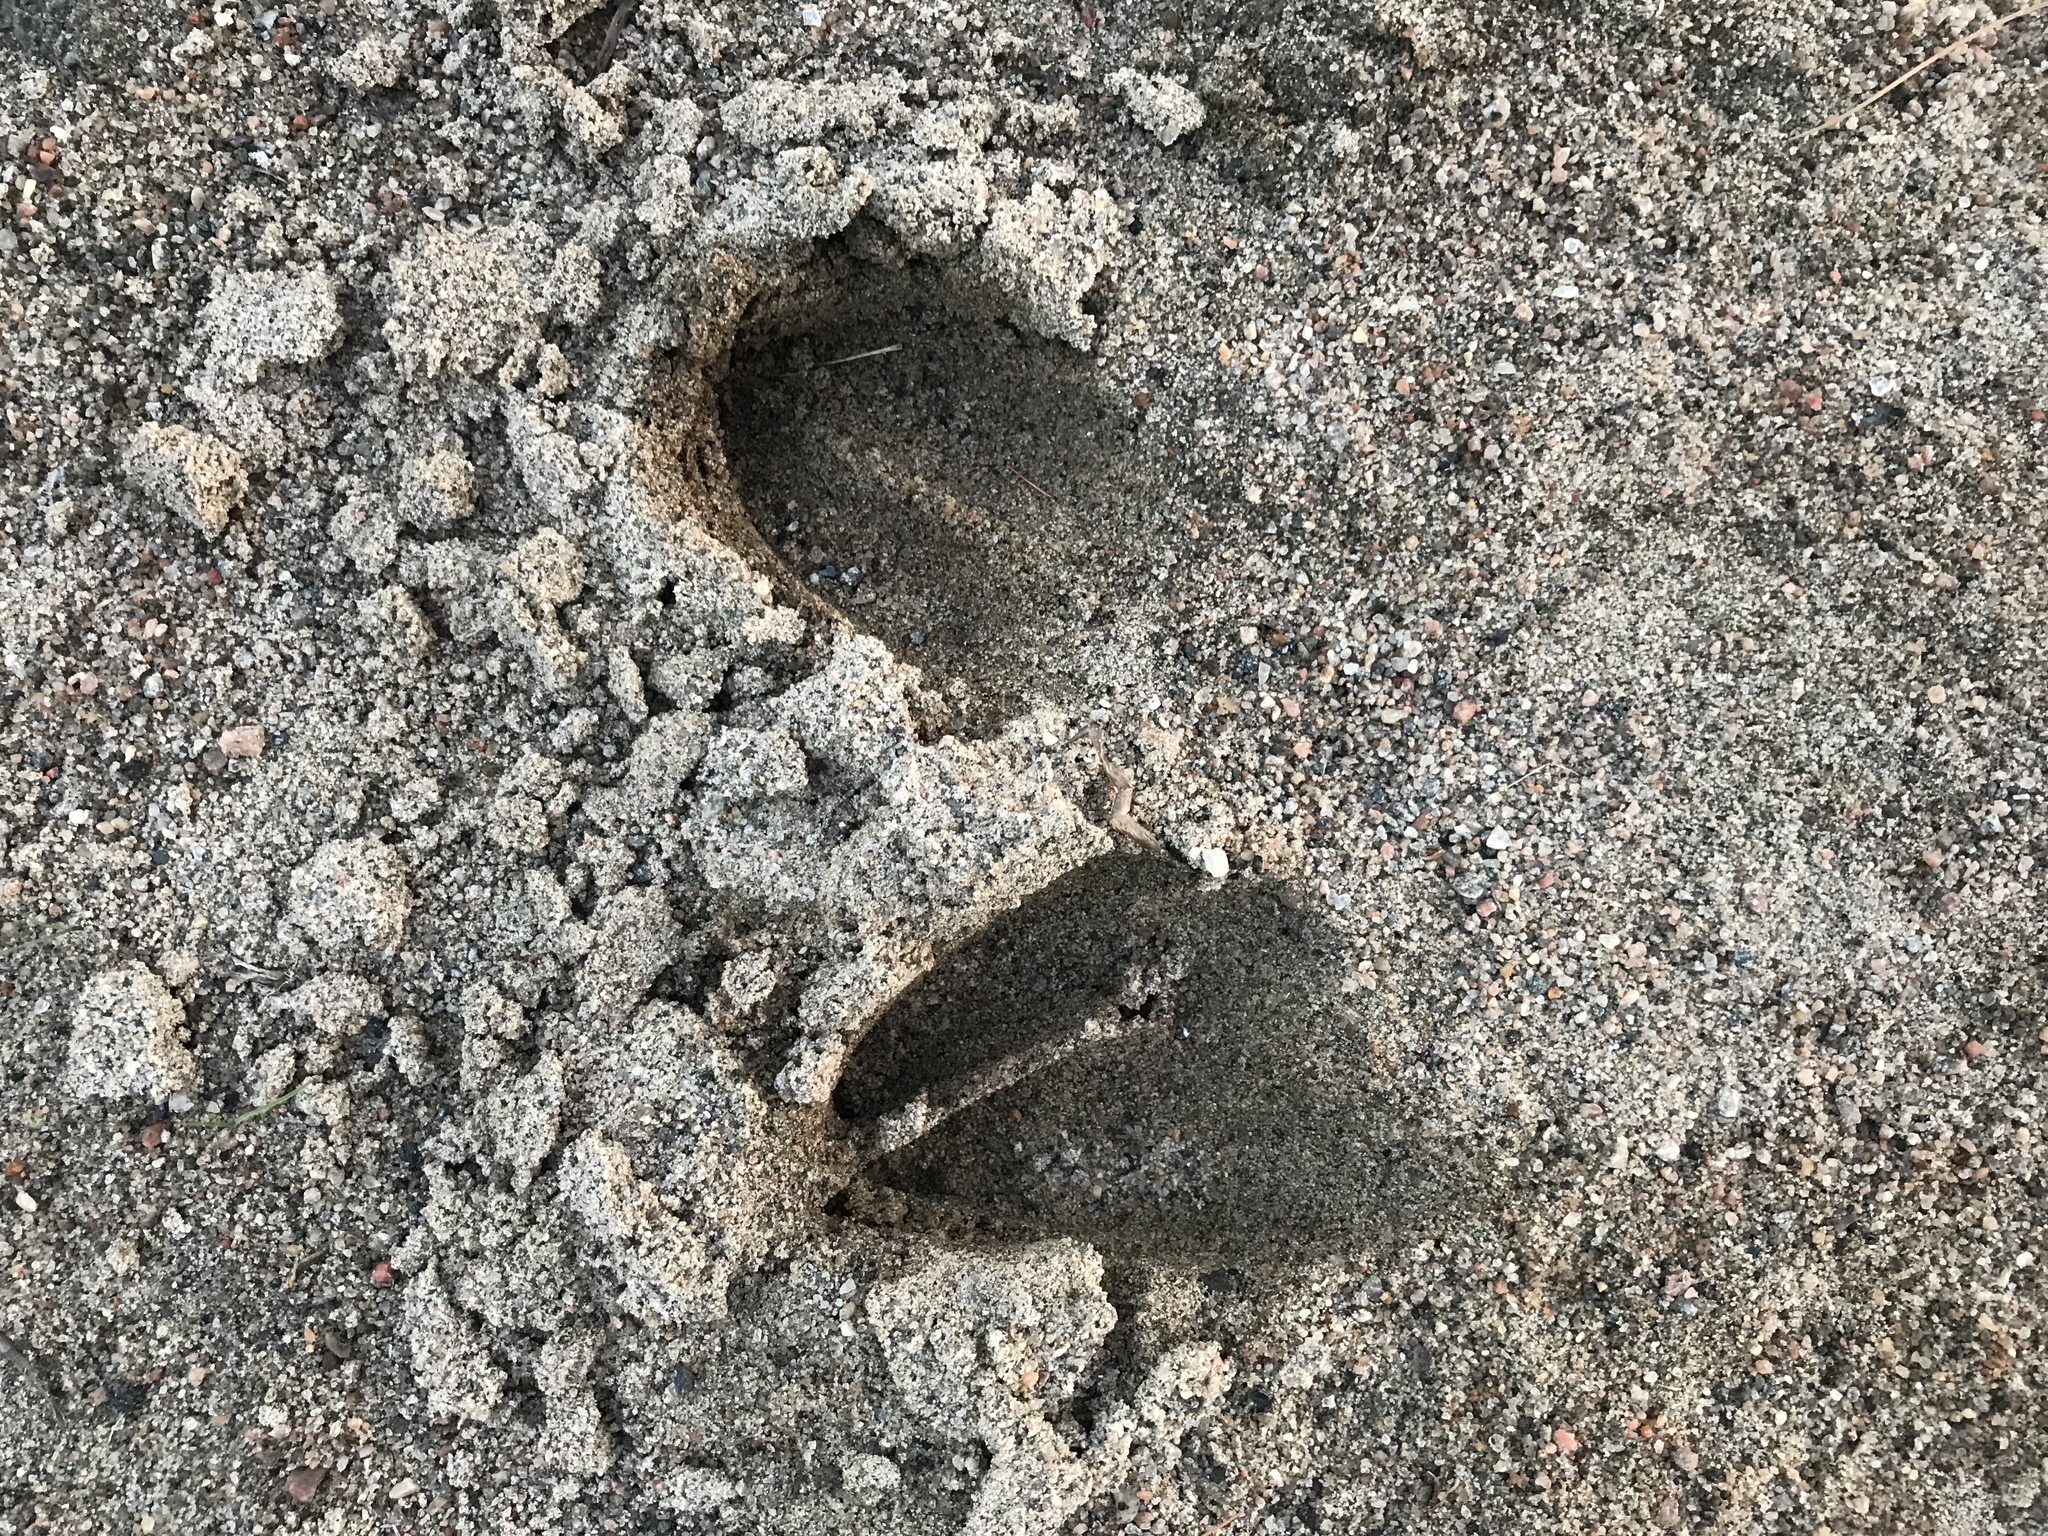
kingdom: Animalia
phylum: Chordata
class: Mammalia
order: Artiodactyla
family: Cervidae
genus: Odocoileus
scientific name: Odocoileus virginianus
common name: White-tailed deer
